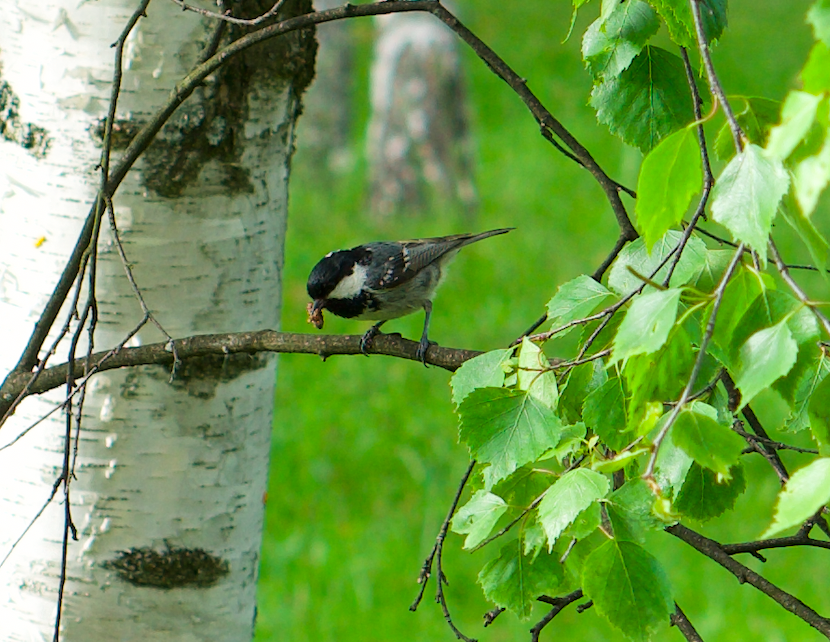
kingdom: Animalia
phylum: Chordata
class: Aves
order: Passeriformes
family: Paridae
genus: Periparus
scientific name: Periparus ater
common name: Coal tit
